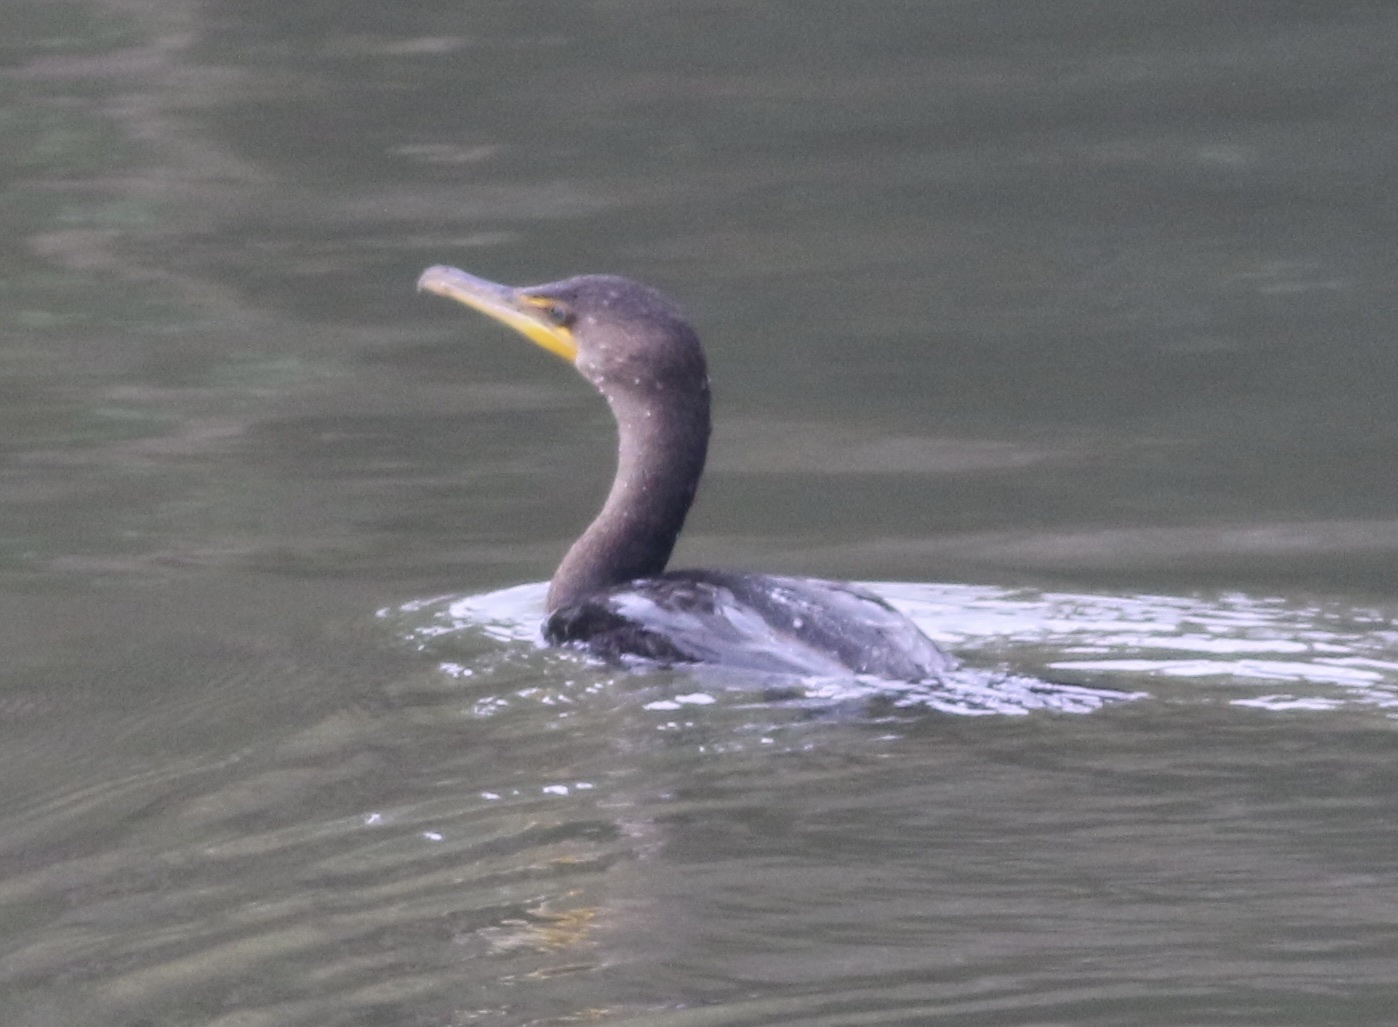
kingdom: Animalia
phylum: Chordata
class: Aves
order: Suliformes
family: Phalacrocoracidae
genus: Phalacrocorax
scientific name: Phalacrocorax auritus
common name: Double-crested cormorant
